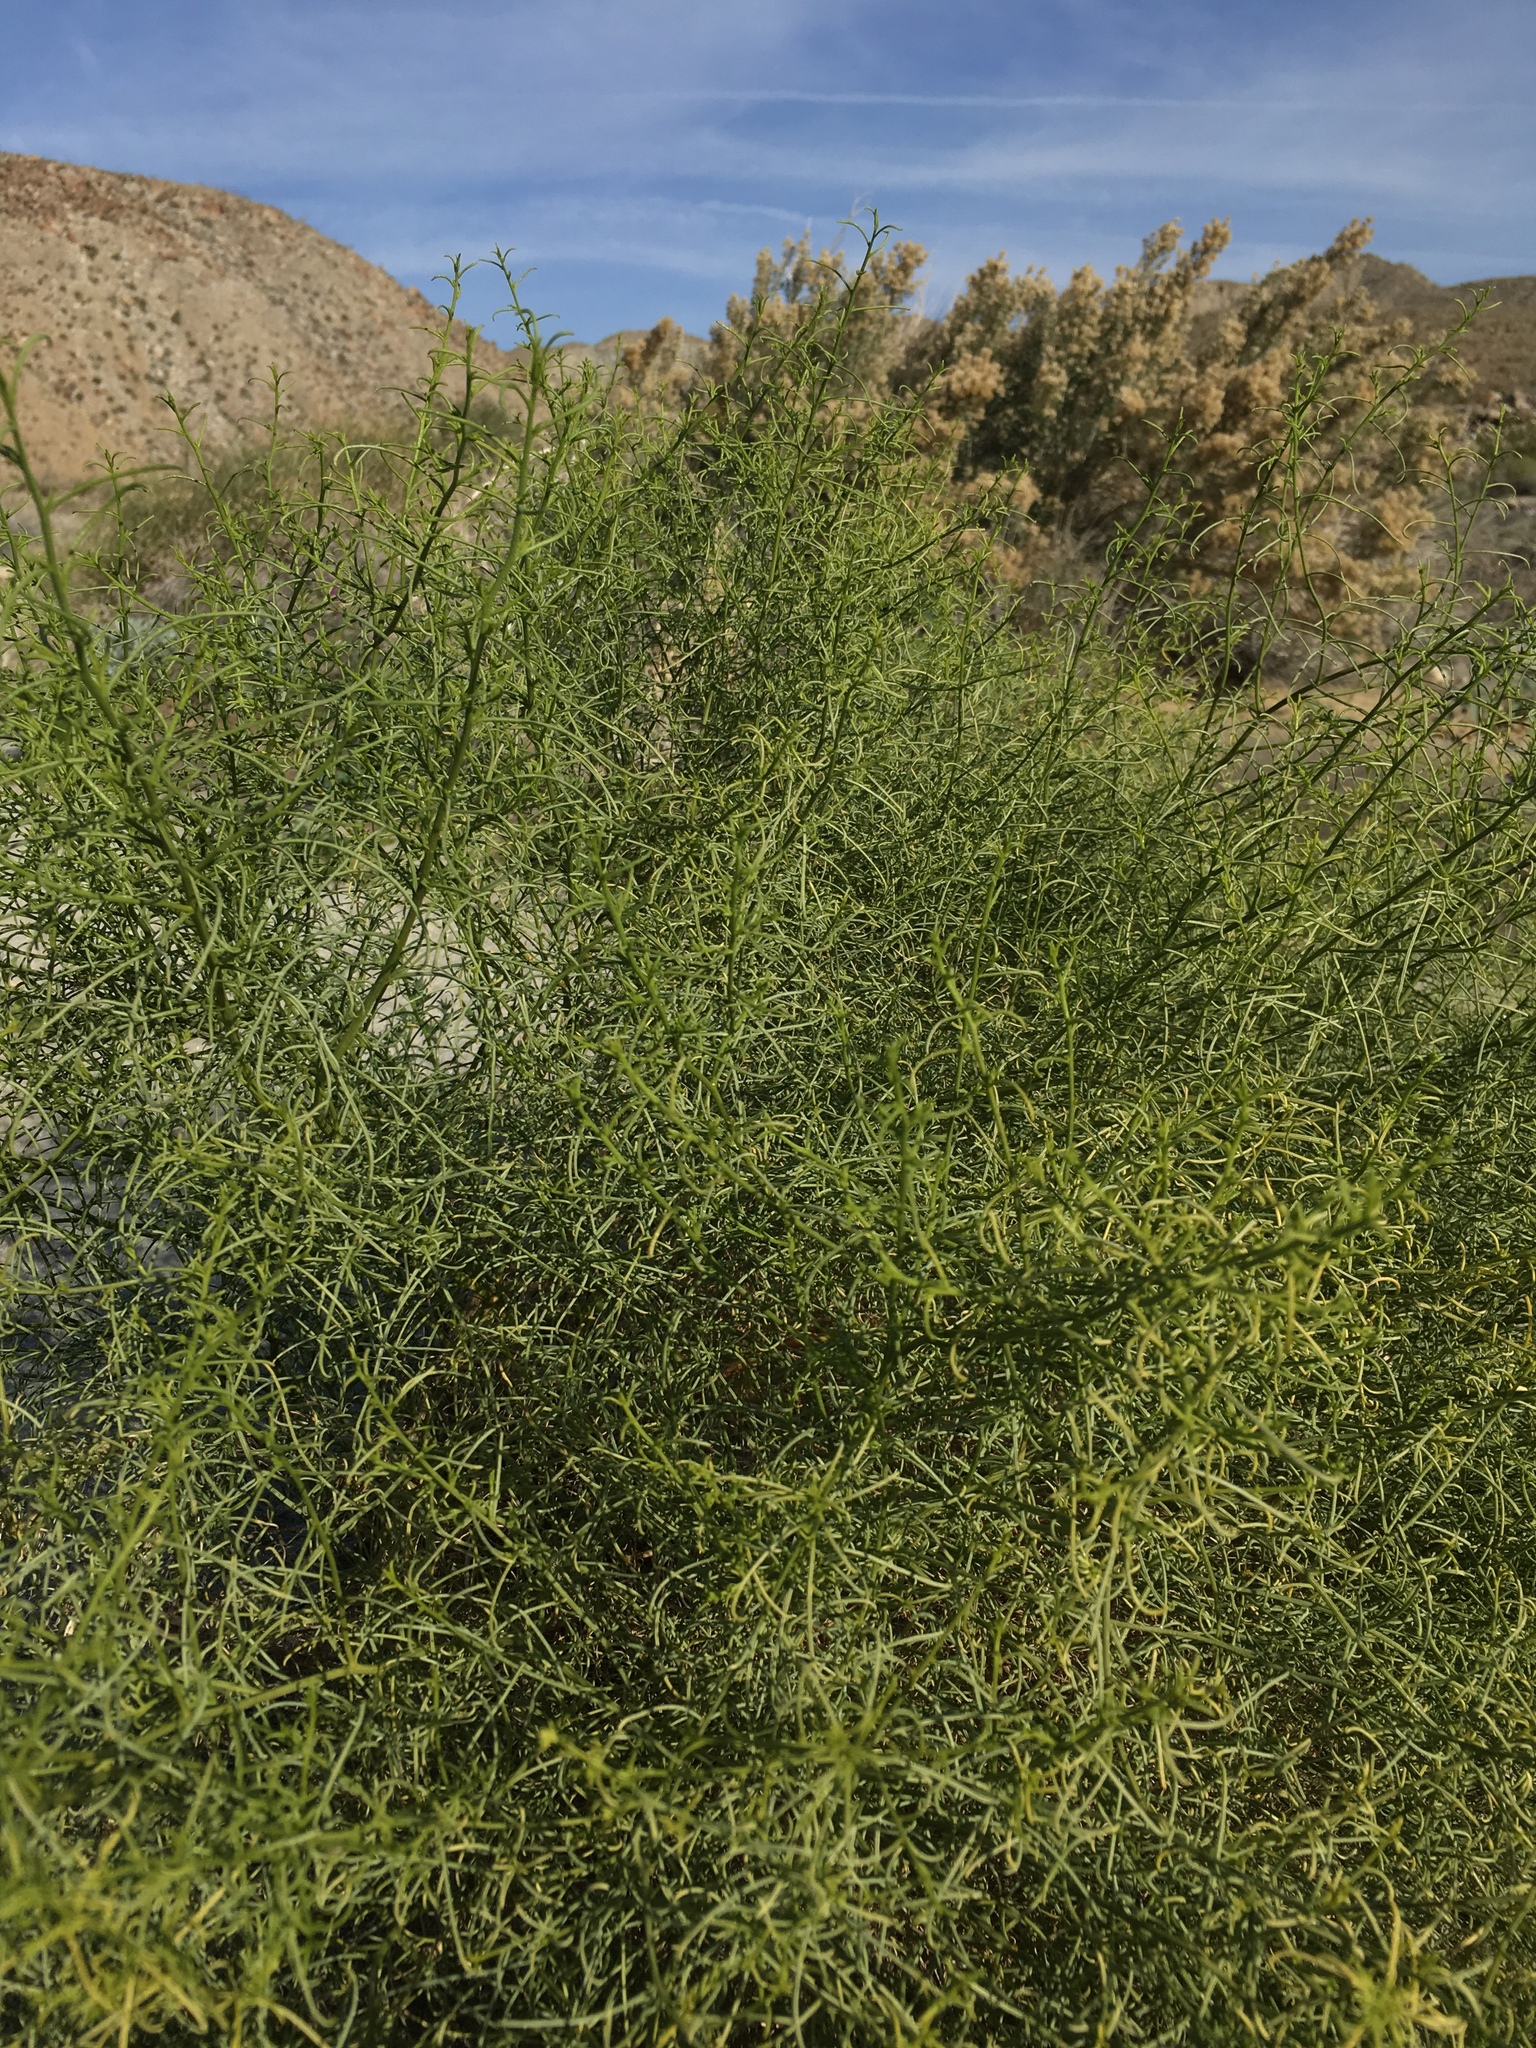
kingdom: Plantae
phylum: Tracheophyta
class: Magnoliopsida
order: Asterales
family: Asteraceae
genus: Ambrosia
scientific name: Ambrosia salsola
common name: Burrobrush
